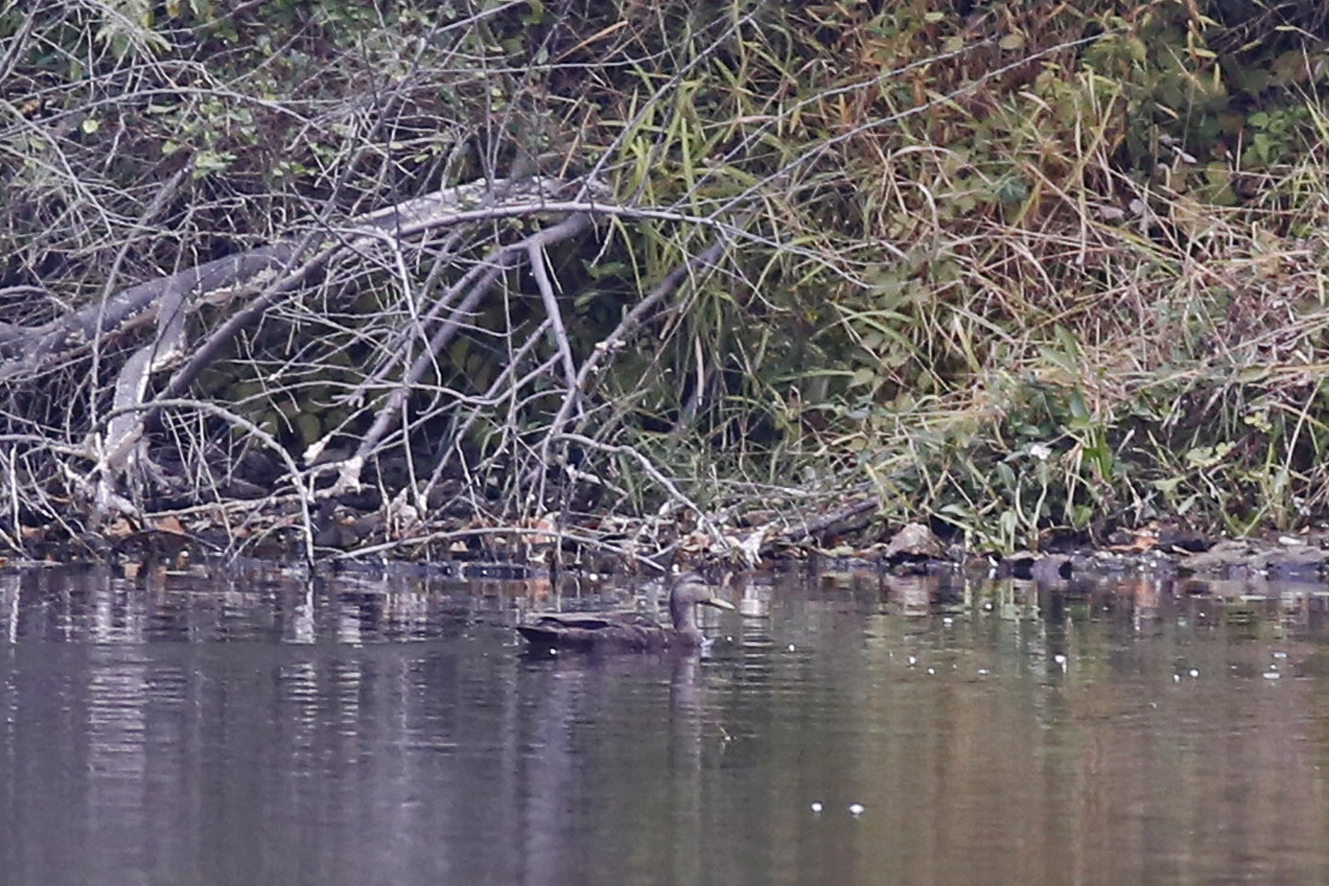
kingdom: Animalia
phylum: Chordata
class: Aves
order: Anseriformes
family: Anatidae
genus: Anas
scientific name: Anas rubripes
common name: American black duck
